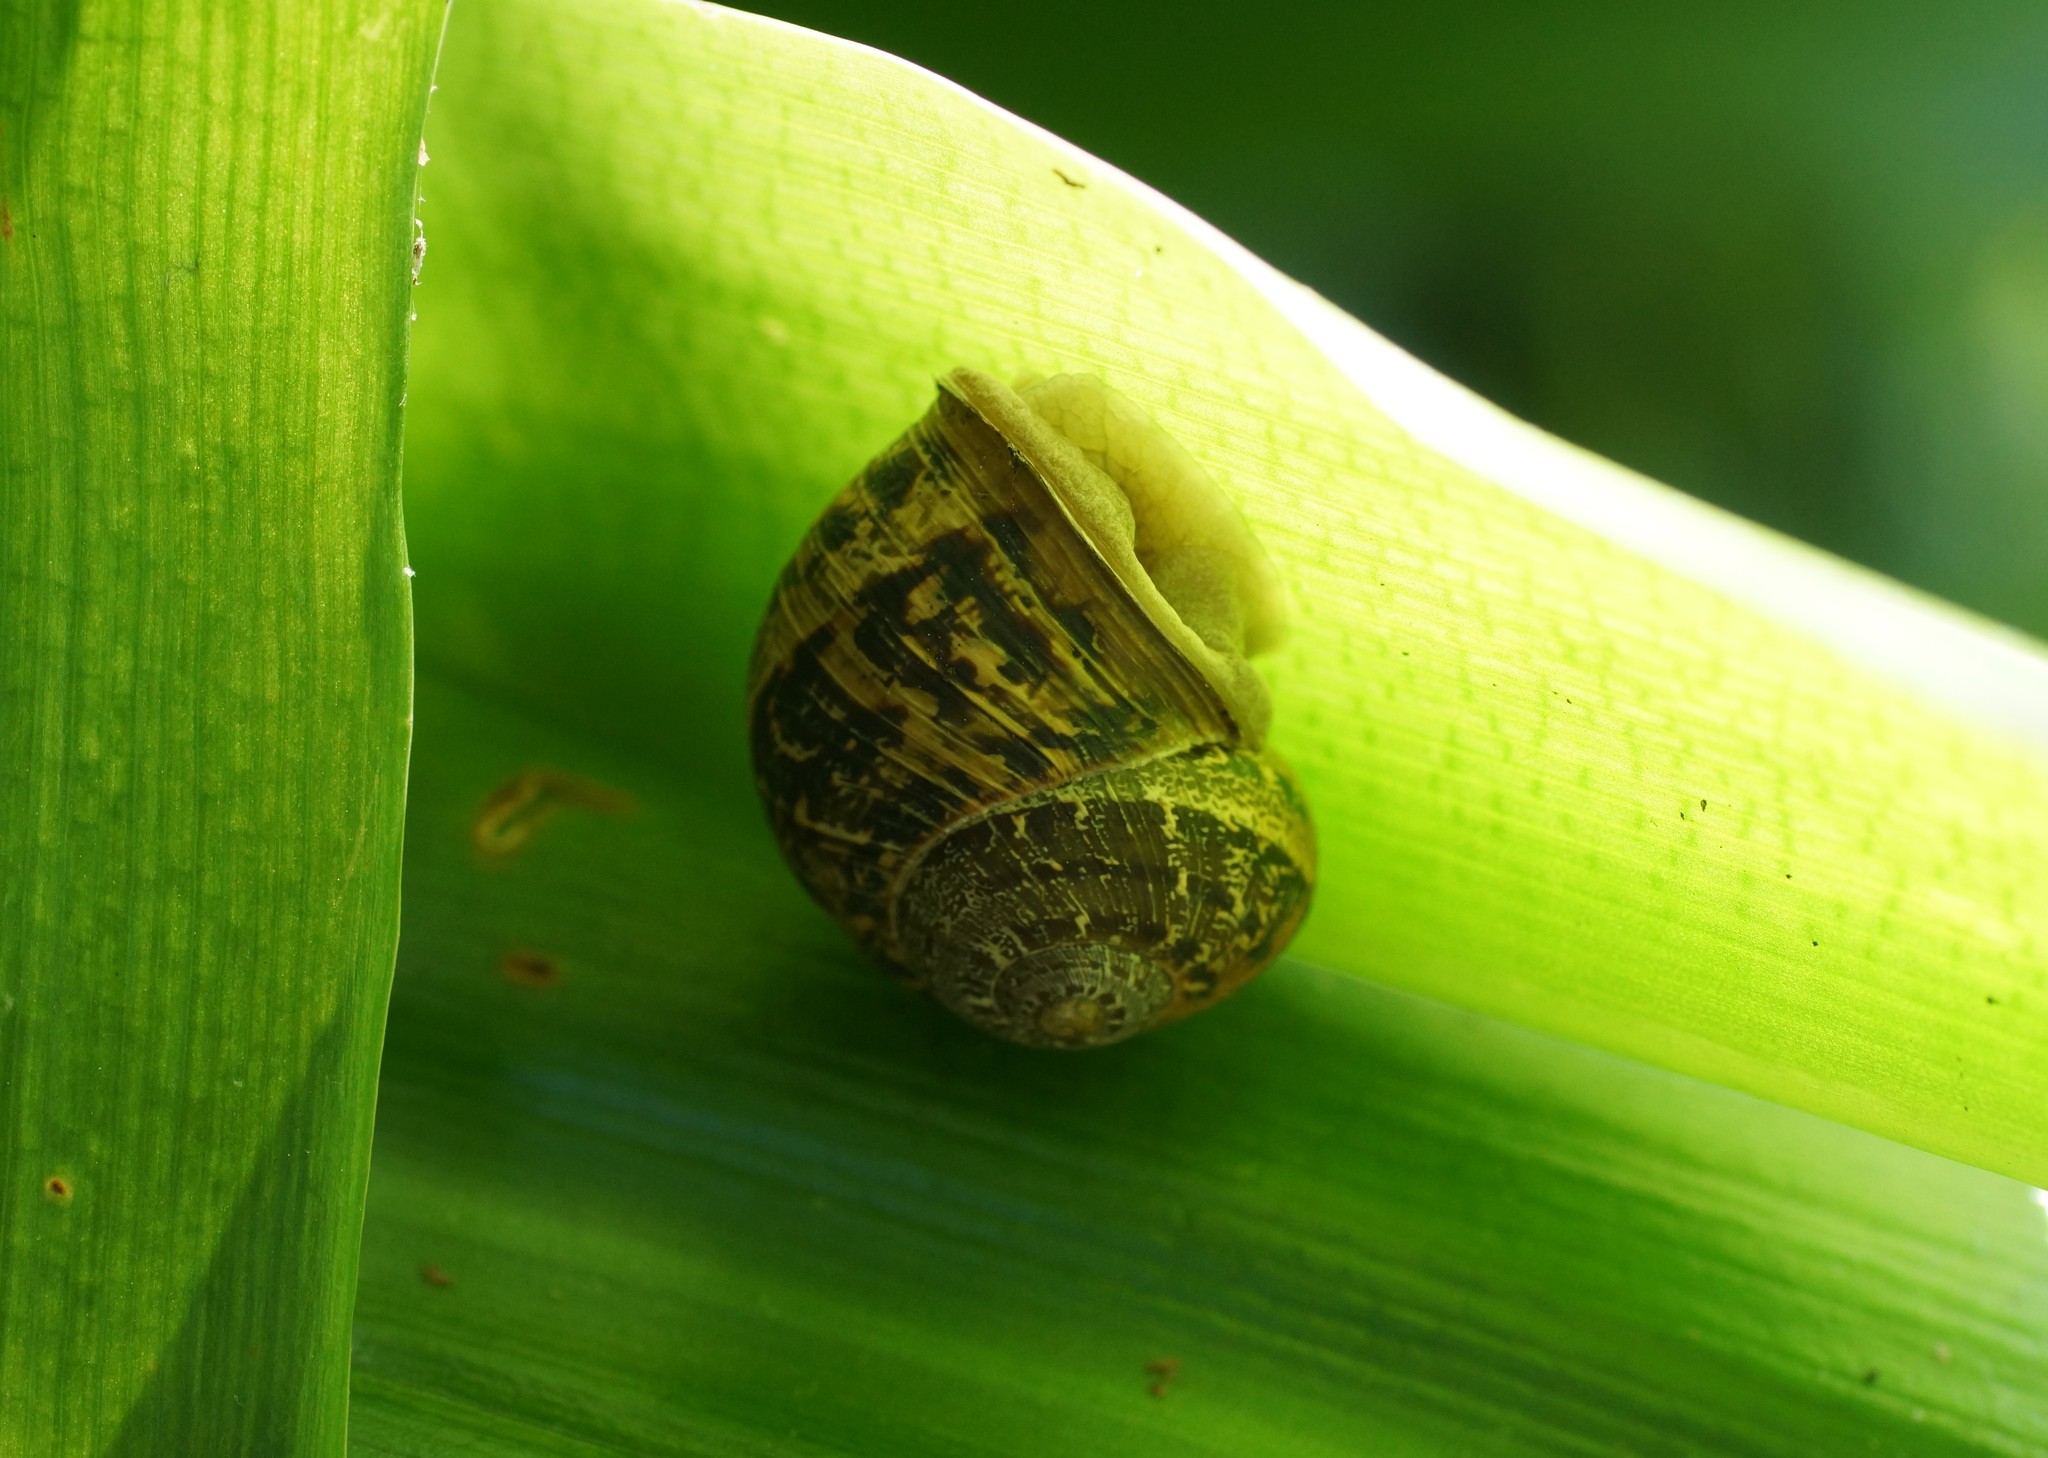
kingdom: Animalia
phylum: Mollusca
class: Gastropoda
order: Stylommatophora
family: Helicidae
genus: Cornu
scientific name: Cornu aspersum
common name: Brown garden snail
